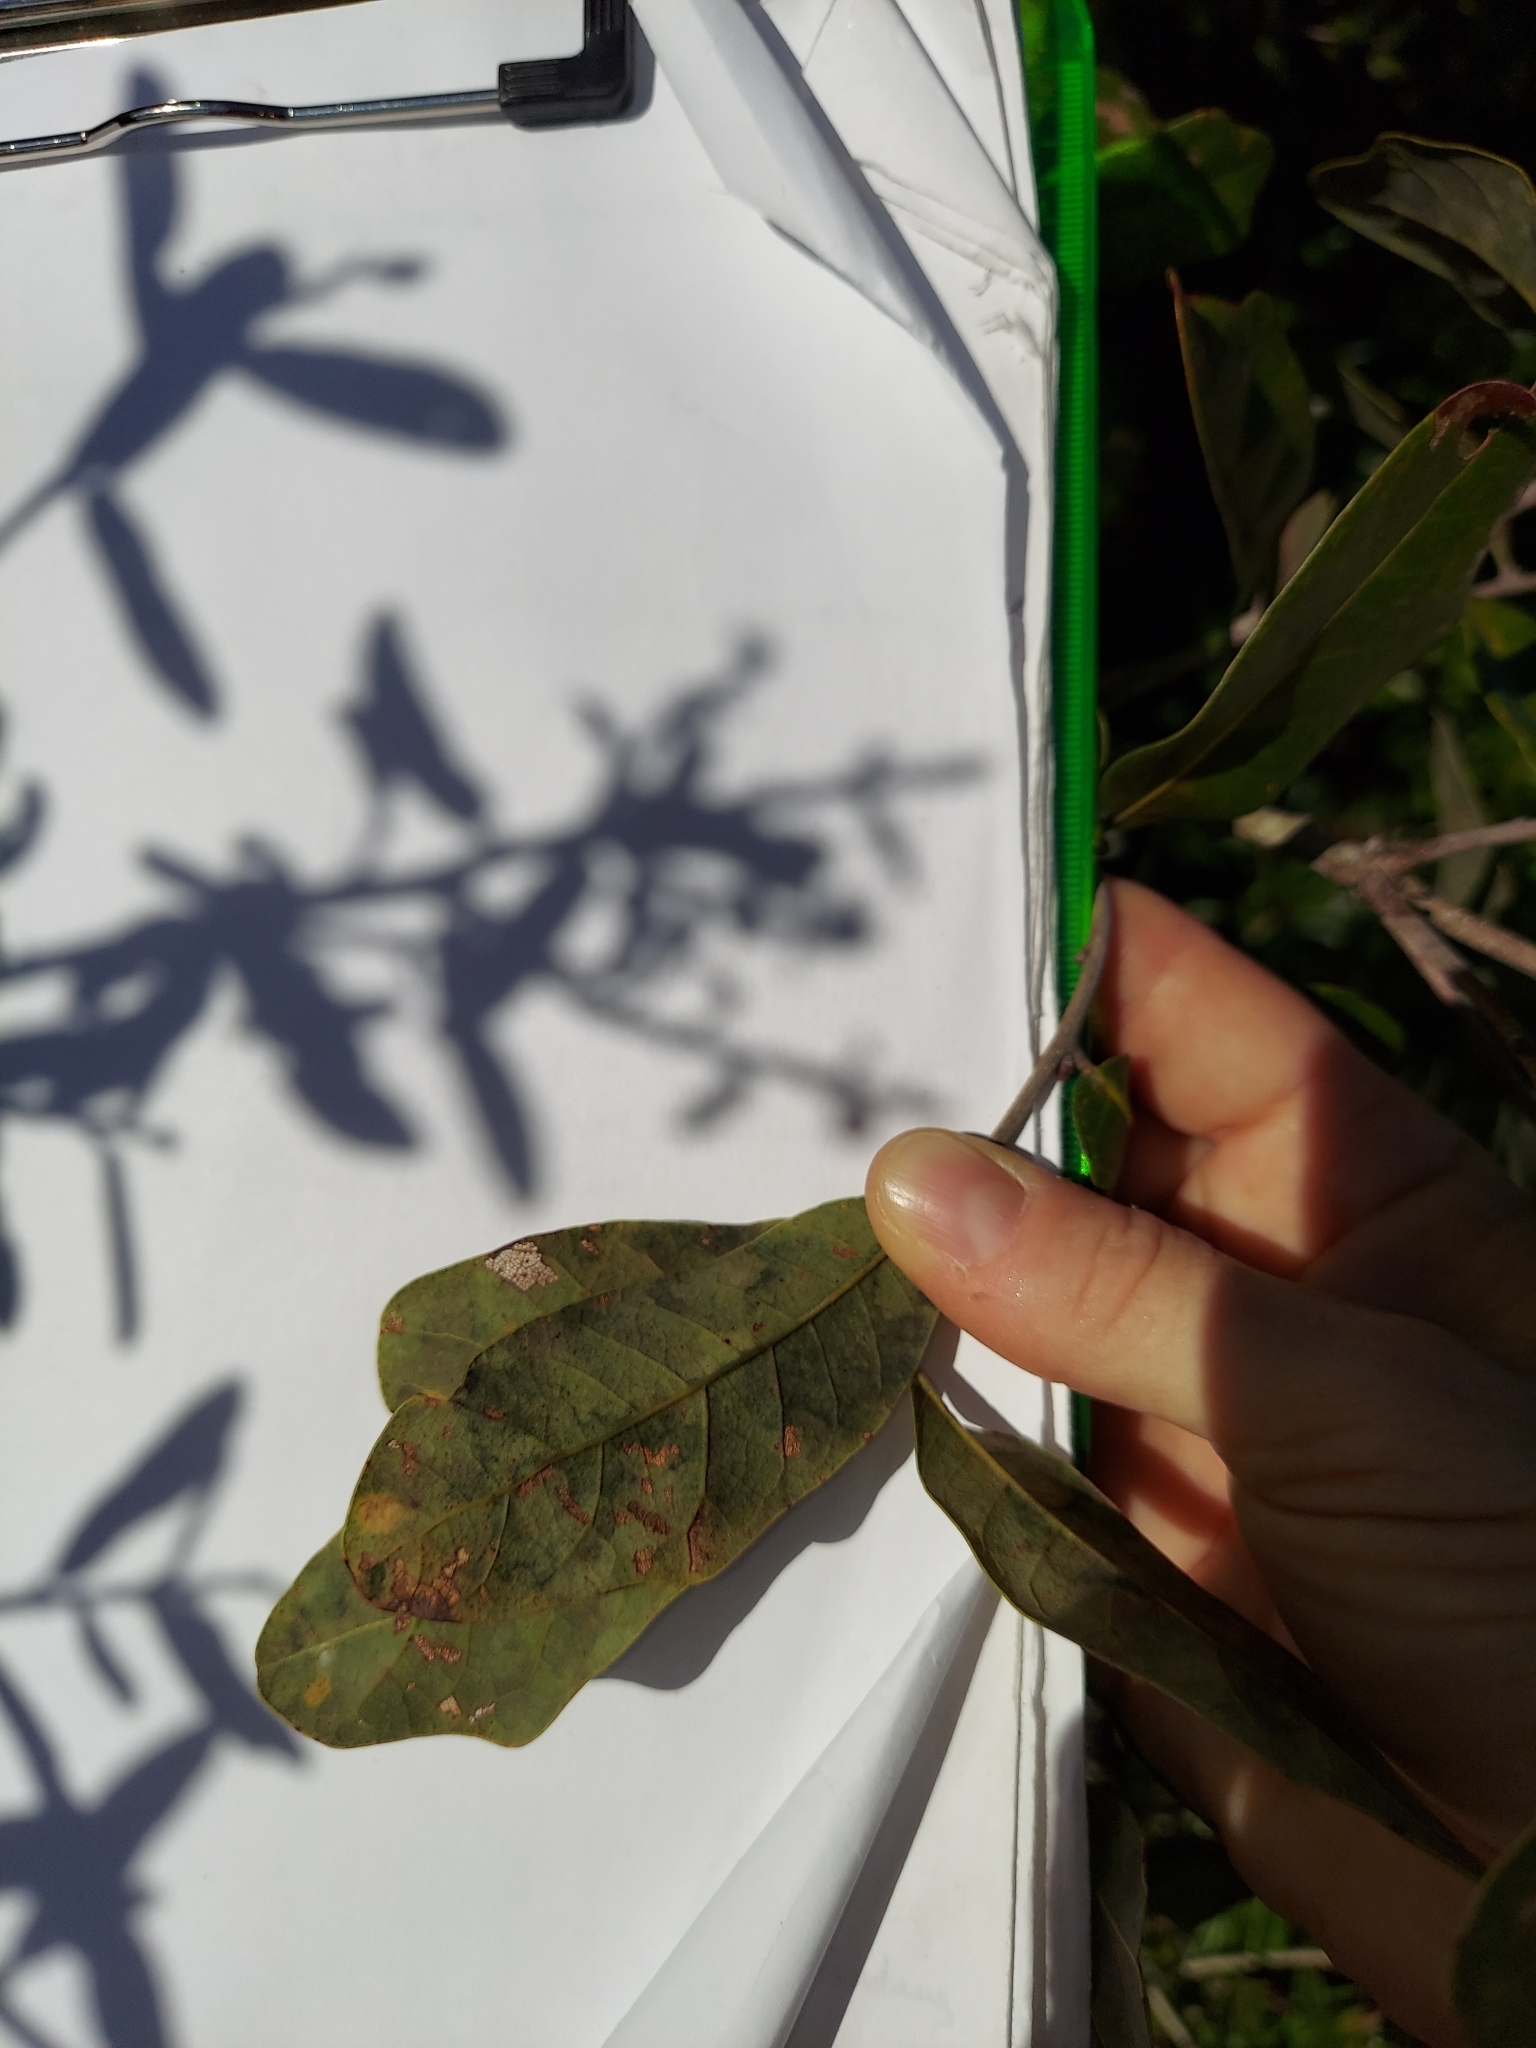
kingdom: Plantae
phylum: Tracheophyta
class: Magnoliopsida
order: Fagales
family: Fagaceae
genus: Quercus
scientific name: Quercus chapmanii
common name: Chapman oak
